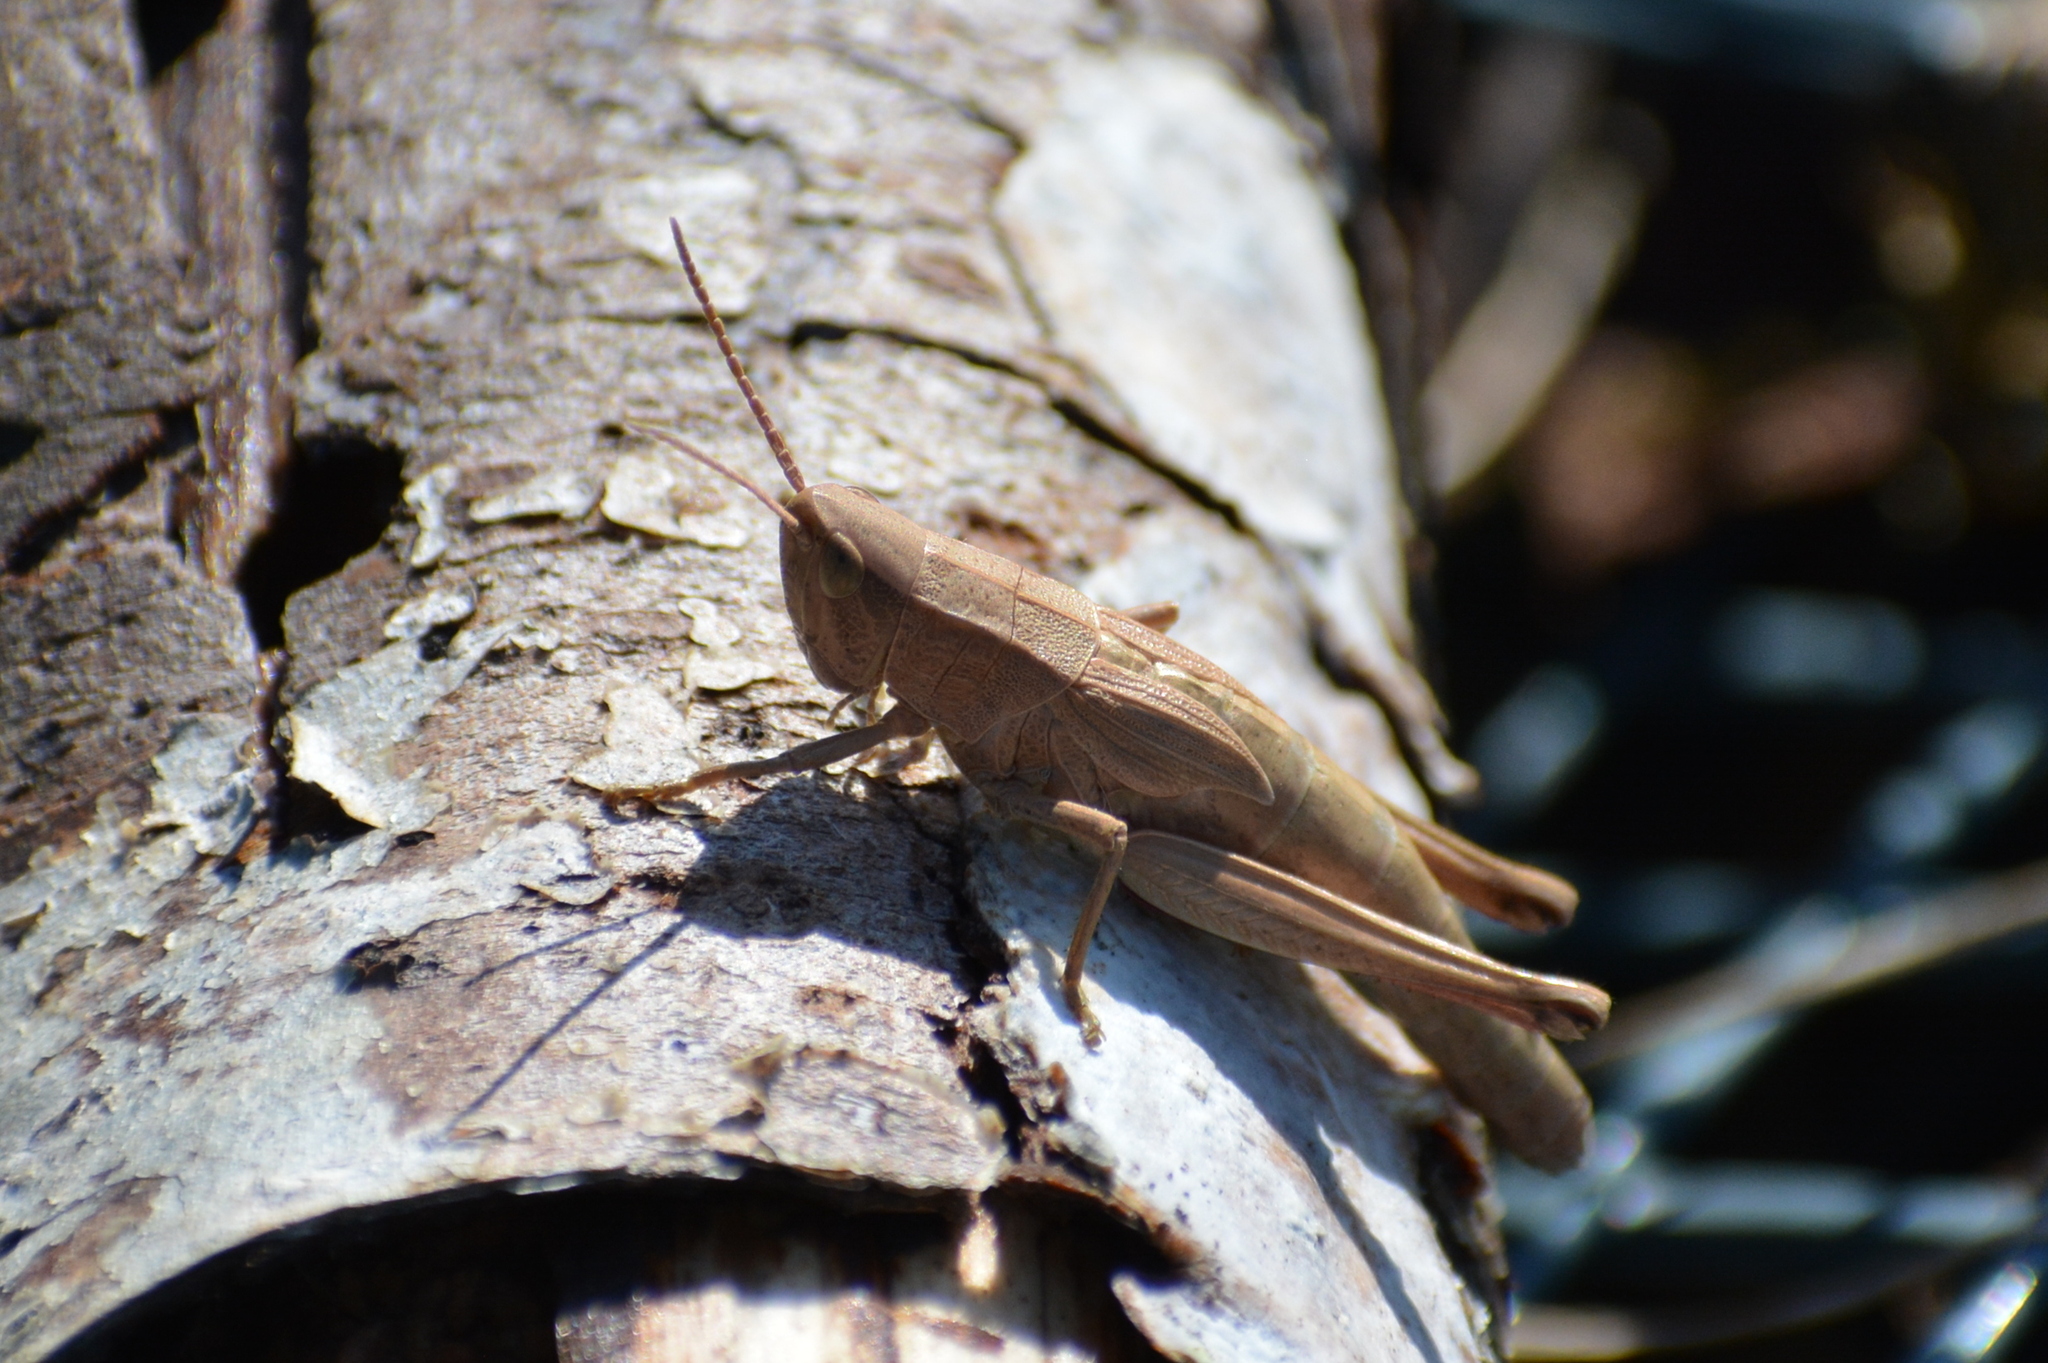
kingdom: Animalia
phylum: Arthropoda
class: Insecta
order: Orthoptera
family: Acrididae
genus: Chrysochraon
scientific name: Chrysochraon dispar
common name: Large gold grasshopper
